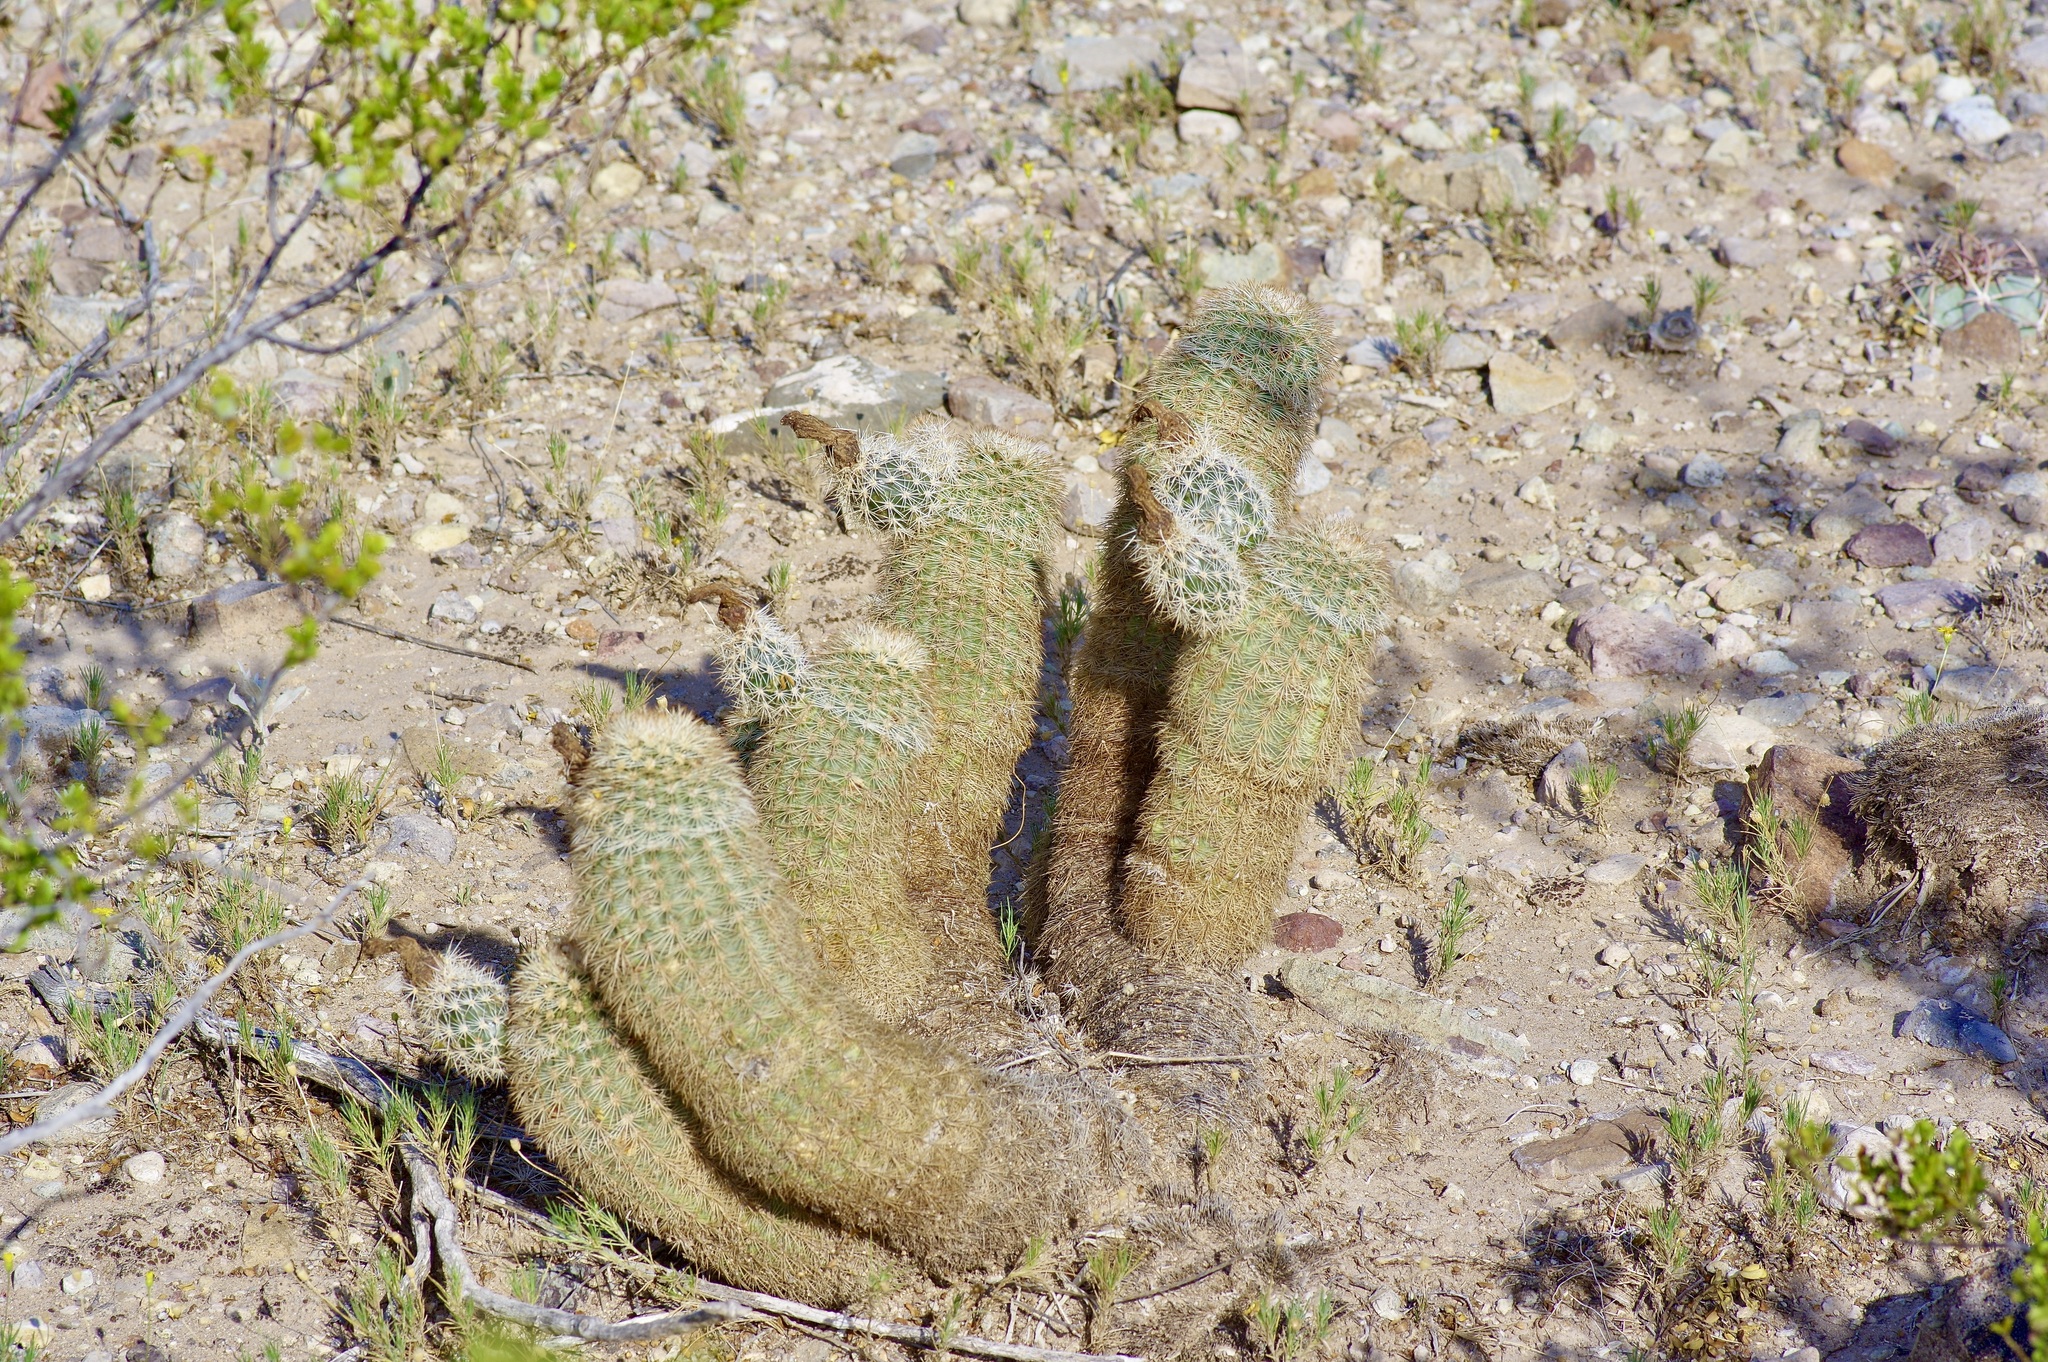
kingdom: Plantae
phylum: Tracheophyta
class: Magnoliopsida
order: Caryophyllales
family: Cactaceae
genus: Echinocereus
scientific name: Echinocereus dasyacanthus
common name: Spiny hedgehog cactus
